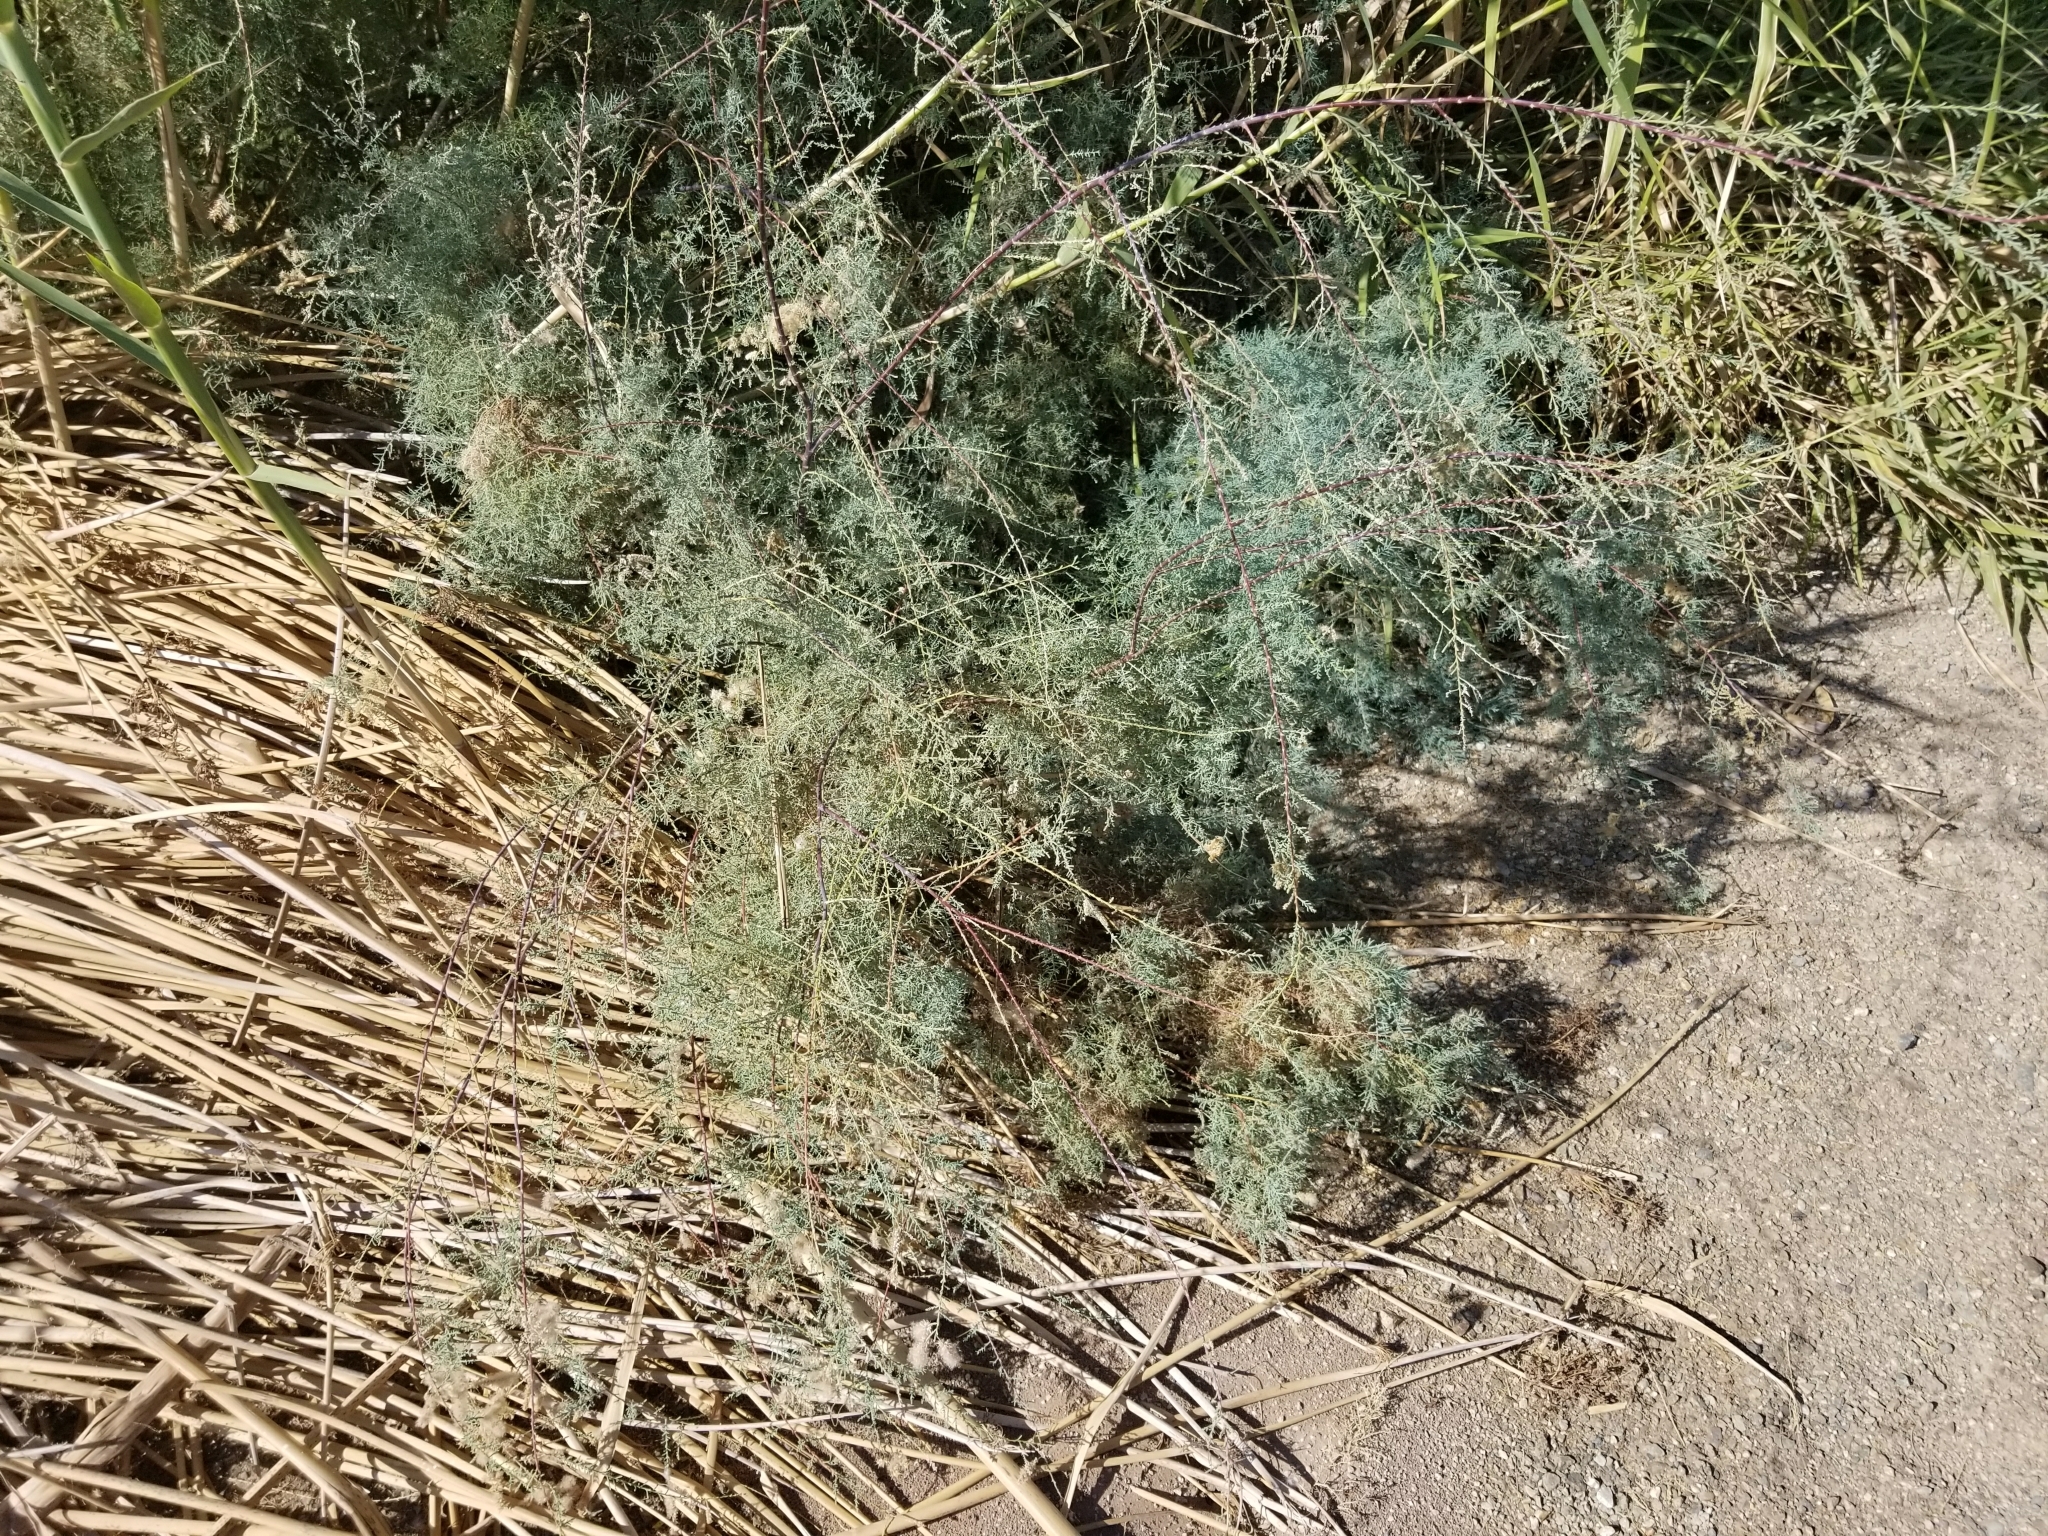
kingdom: Plantae
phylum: Tracheophyta
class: Magnoliopsida
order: Caryophyllales
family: Tamaricaceae
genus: Tamarix
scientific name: Tamarix ramosissima
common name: Pink tamarisk
